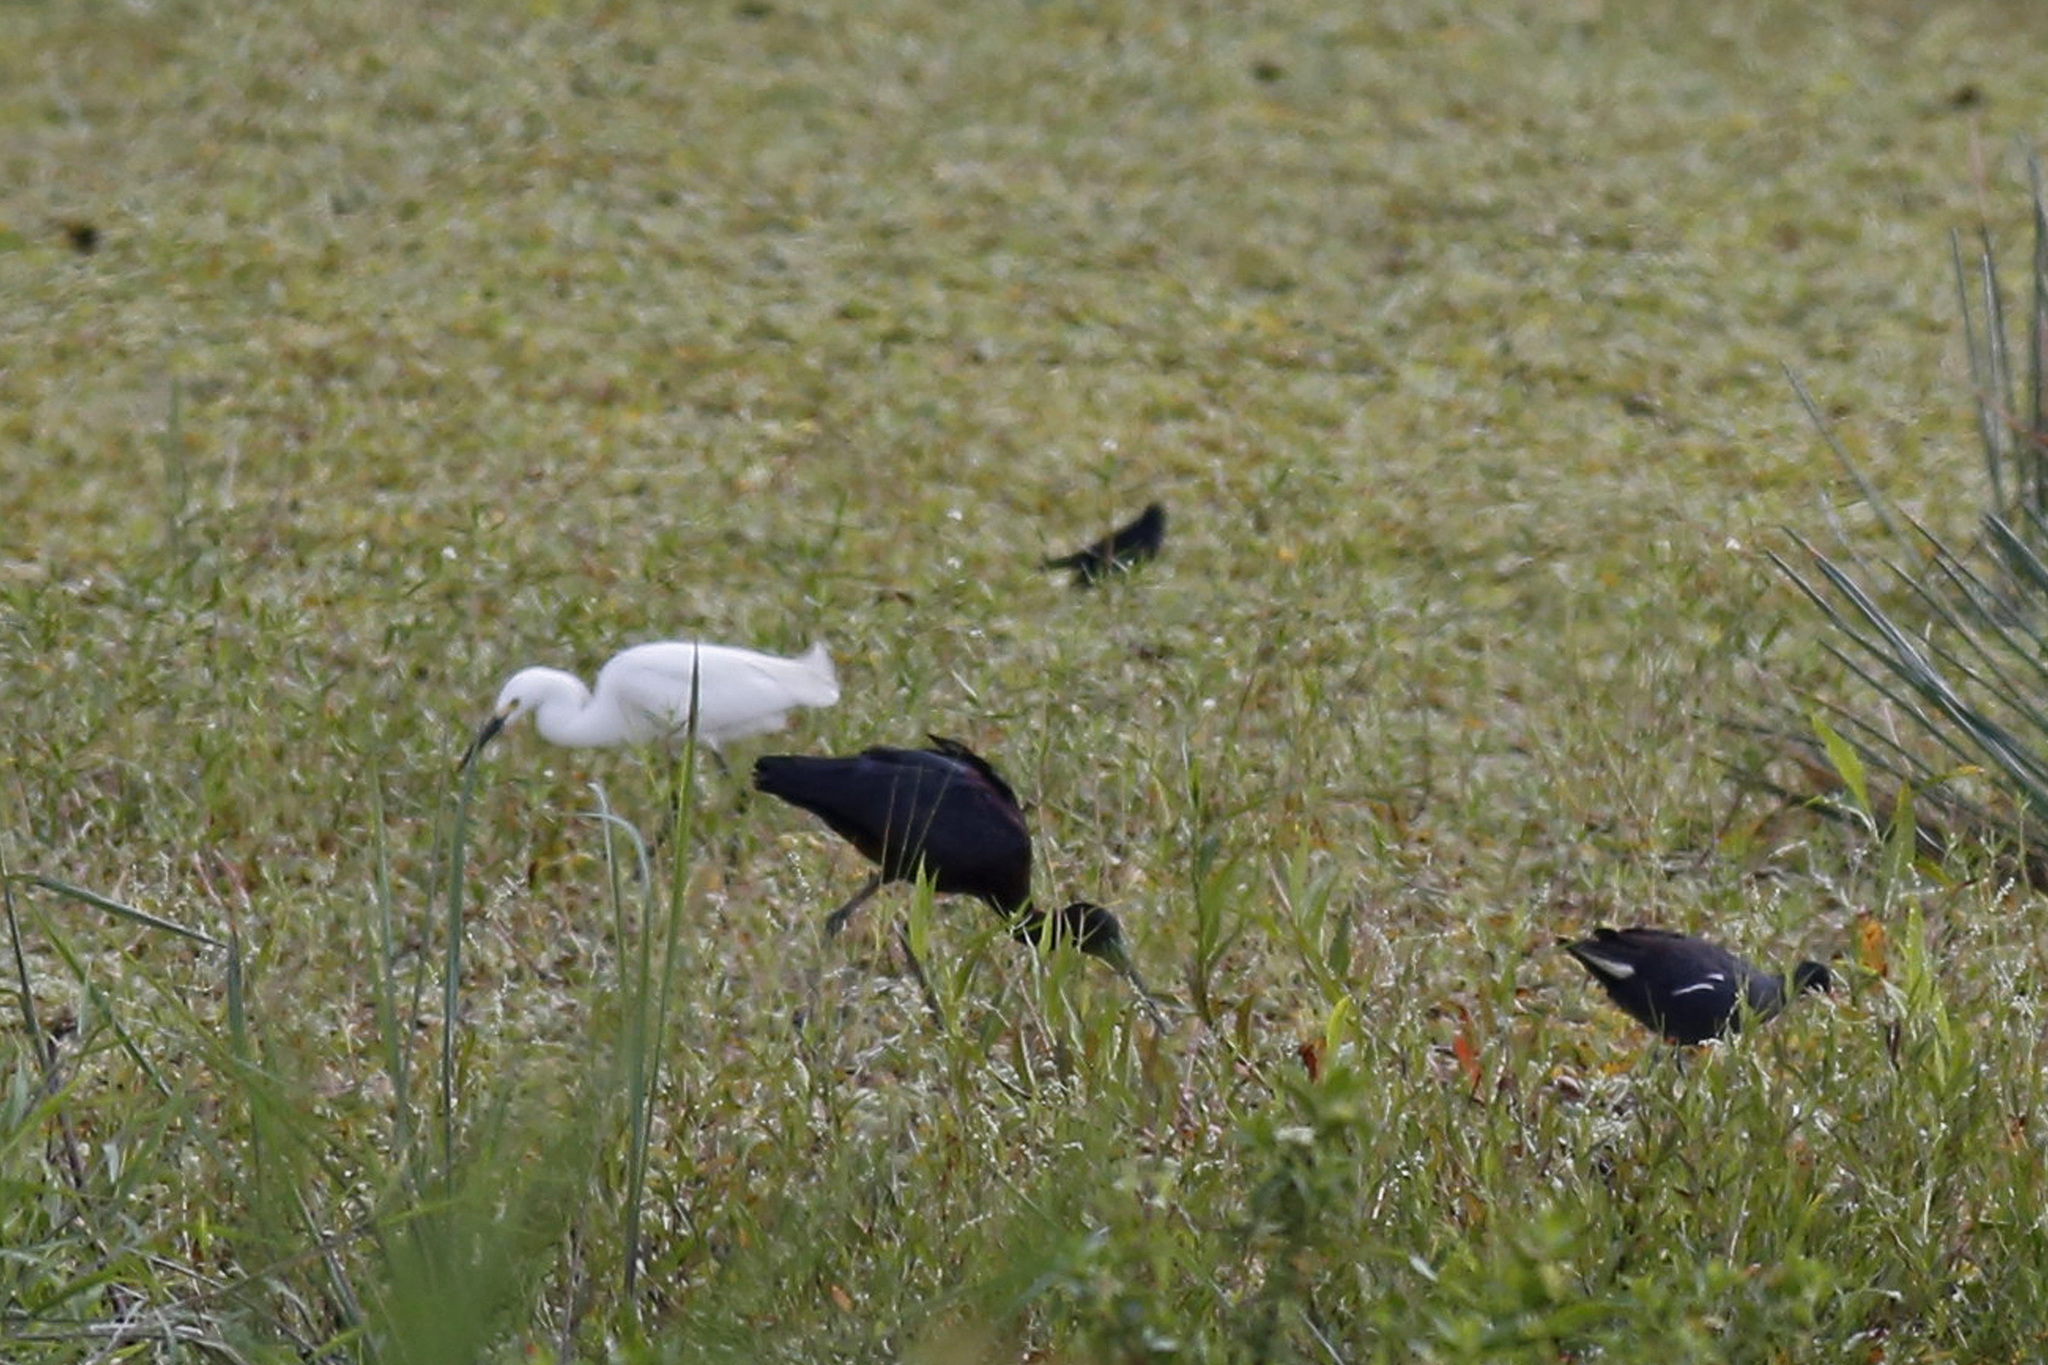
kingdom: Animalia
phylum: Chordata
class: Aves
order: Pelecaniformes
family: Threskiornithidae
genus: Plegadis
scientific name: Plegadis falcinellus
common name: Glossy ibis
